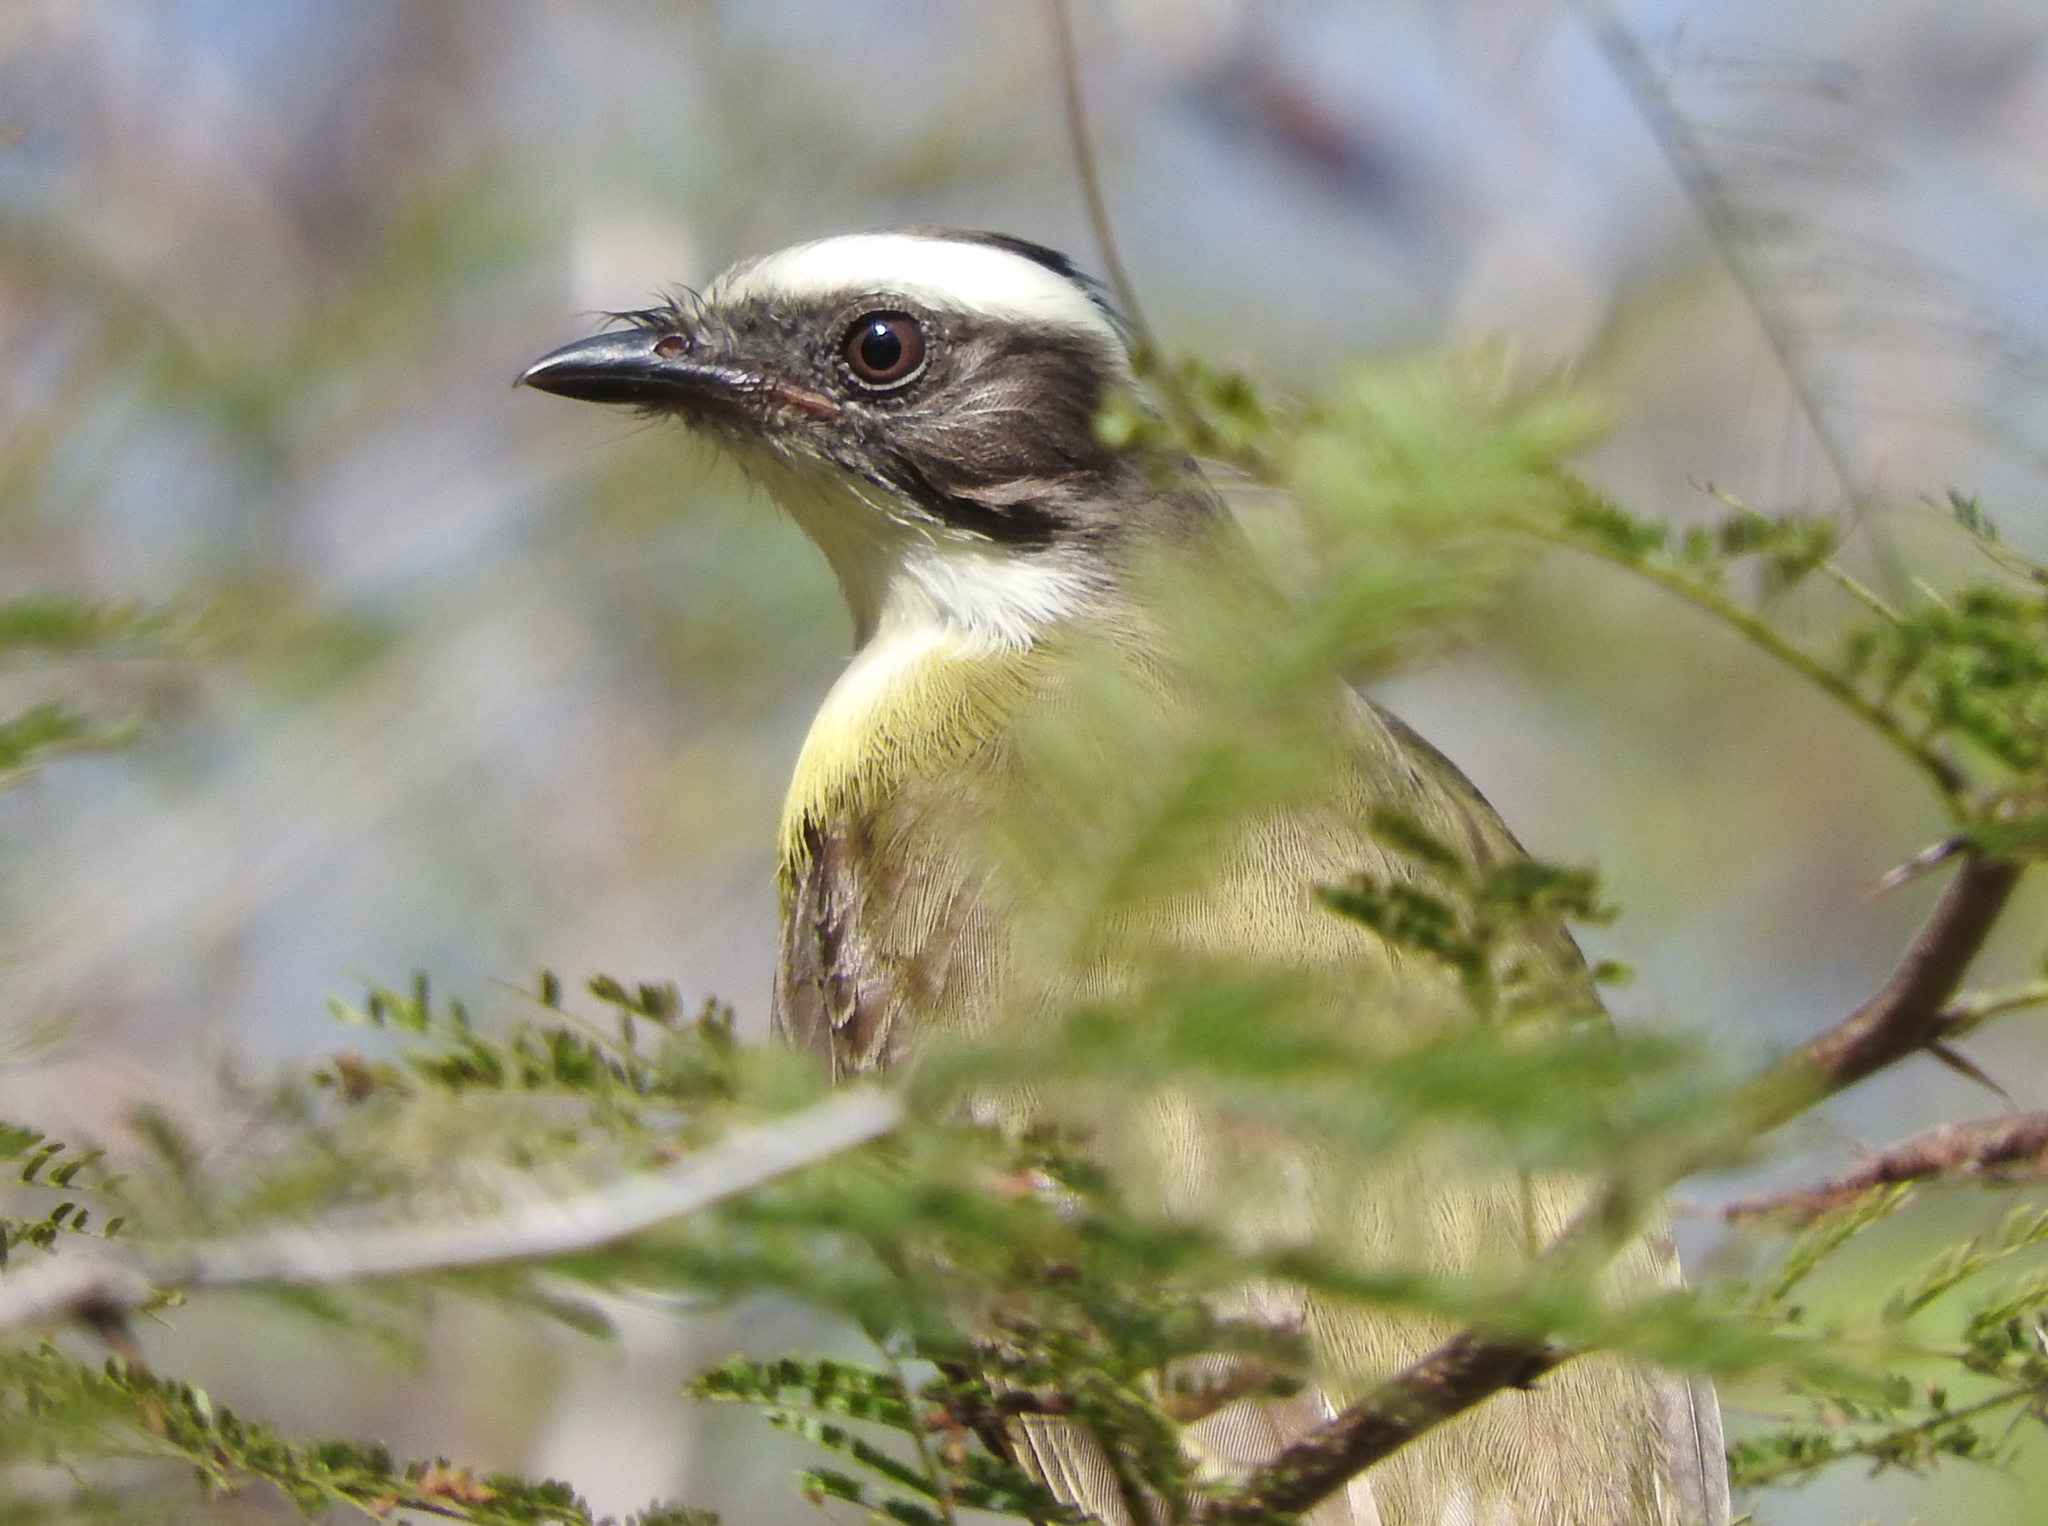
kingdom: Animalia
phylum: Chordata
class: Aves
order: Passeriformes
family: Tyrannidae
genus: Myiozetetes
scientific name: Myiozetetes similis
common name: Social flycatcher
